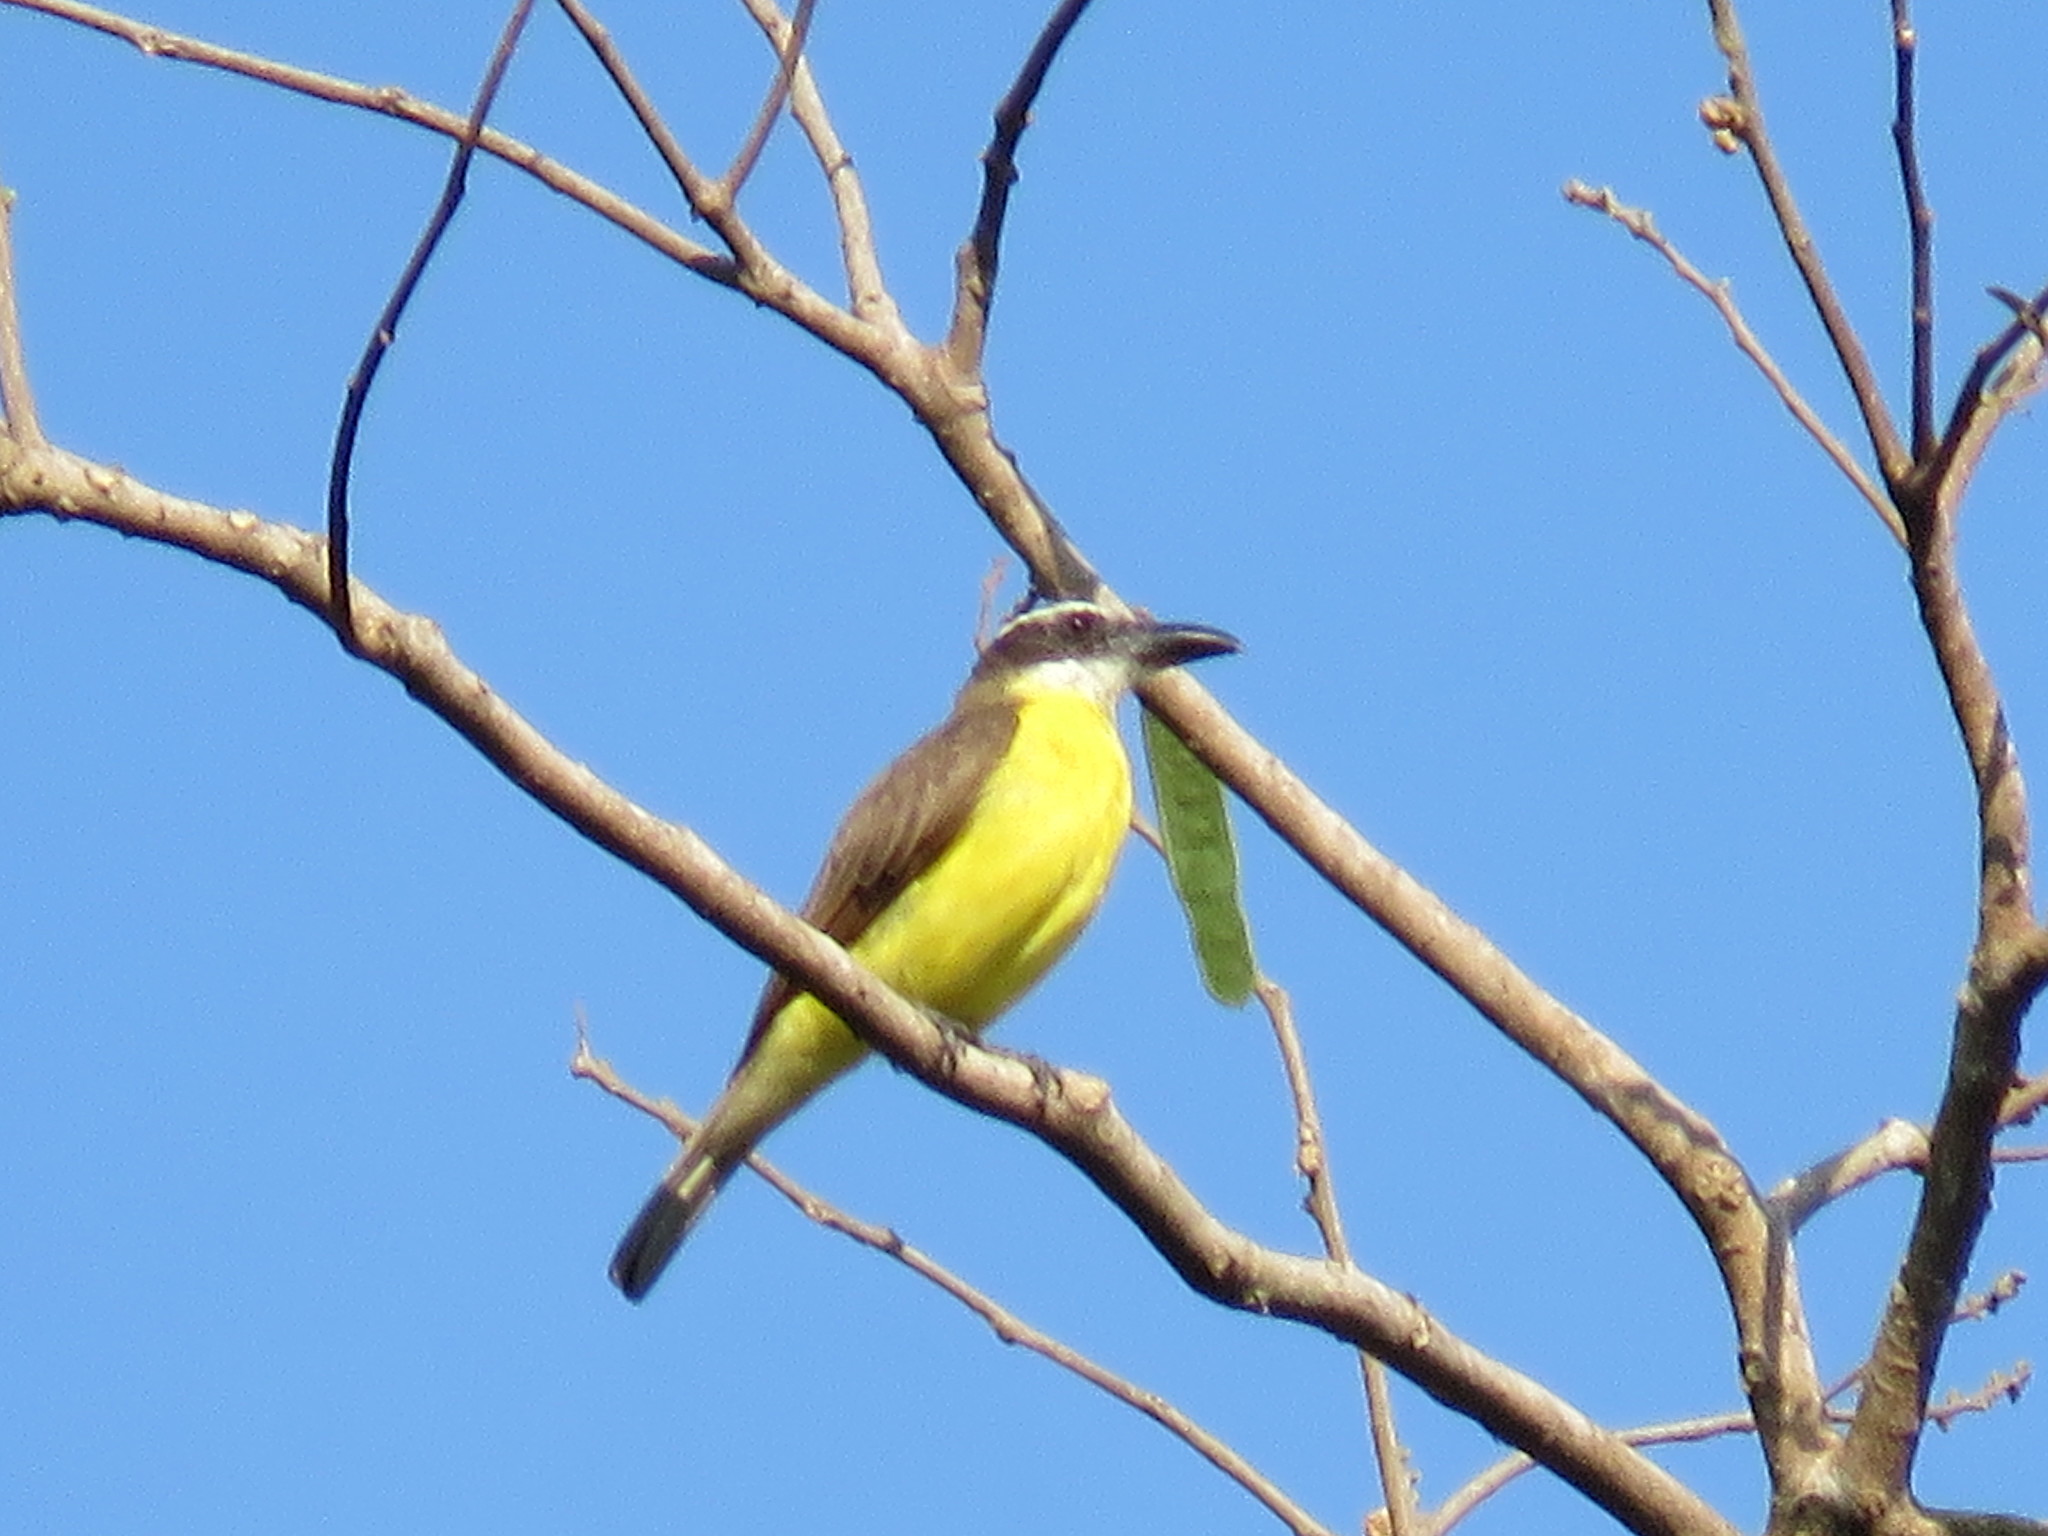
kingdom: Animalia
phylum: Chordata
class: Aves
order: Passeriformes
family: Tyrannidae
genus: Megarynchus
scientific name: Megarynchus pitangua
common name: Boat-billed flycatcher
